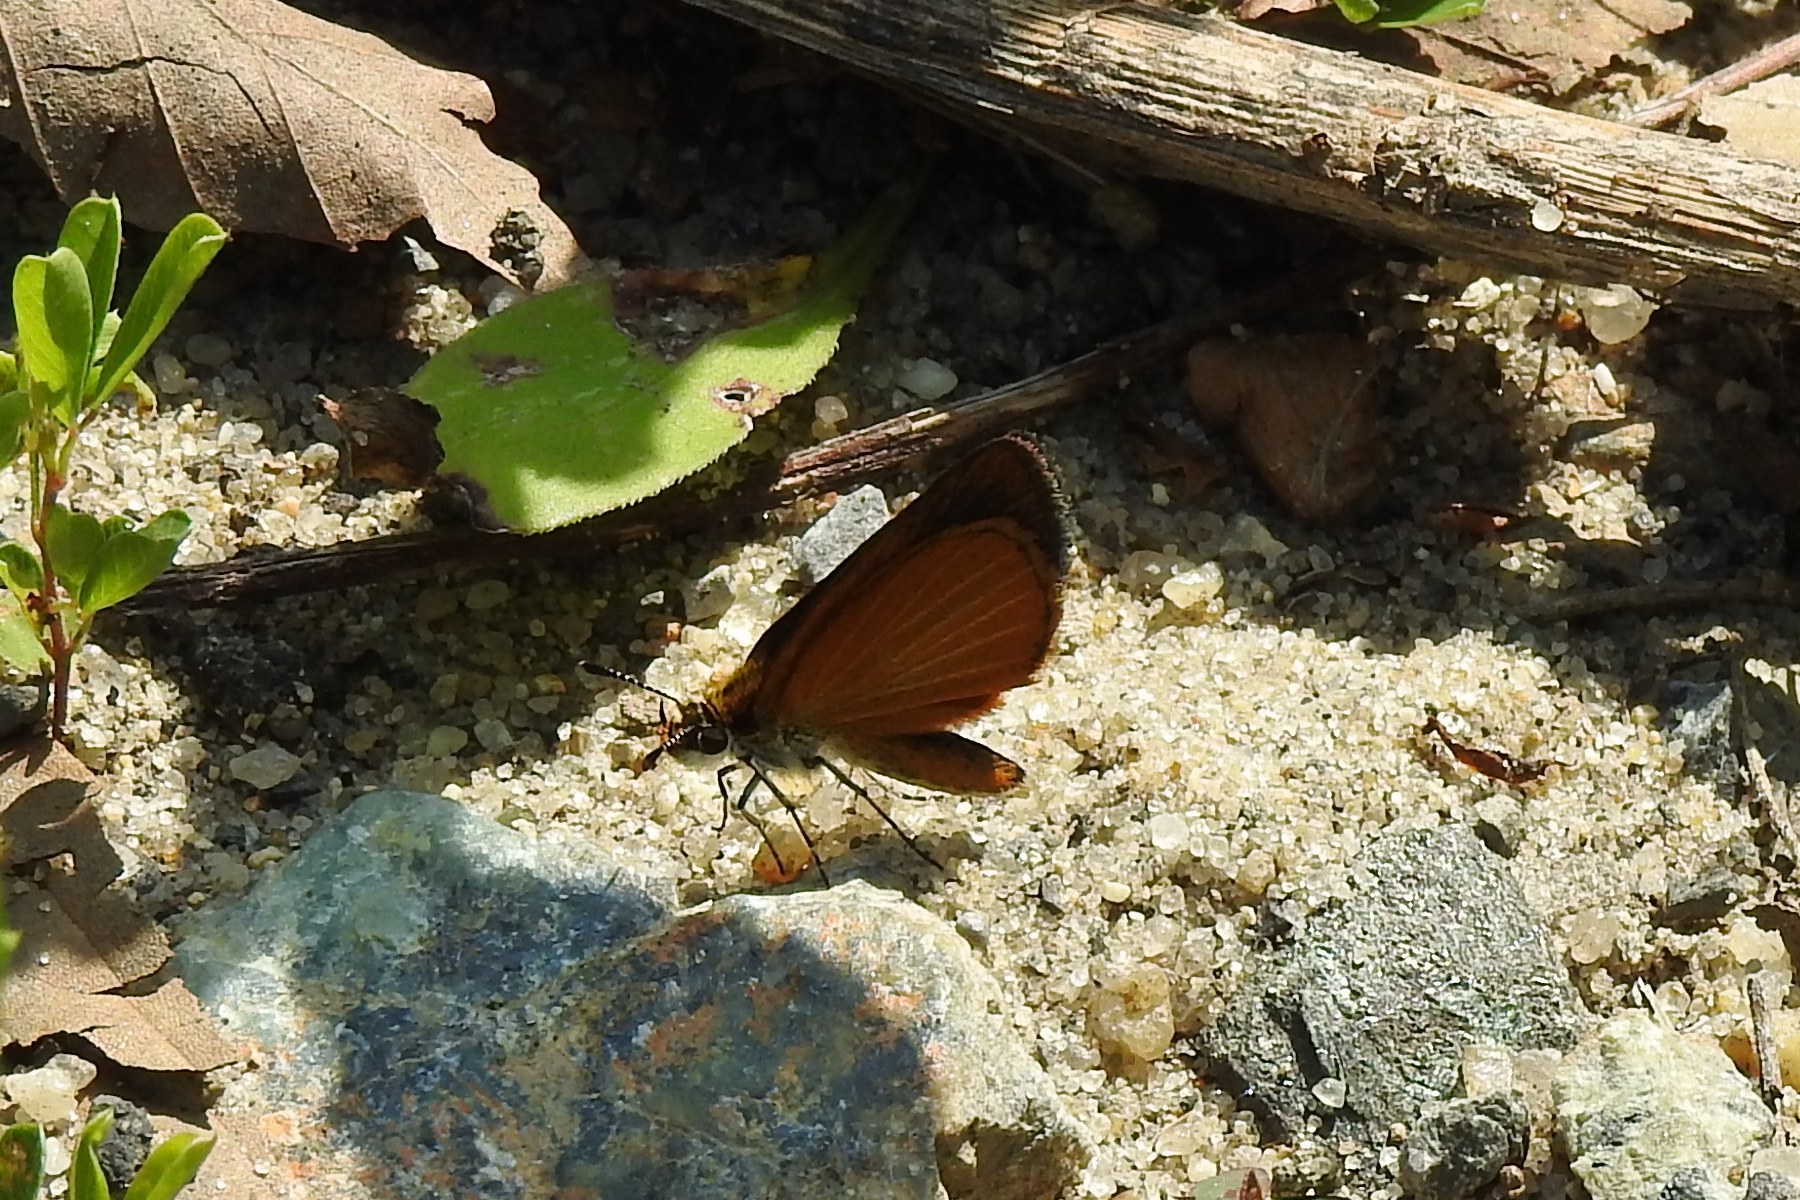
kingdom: Animalia
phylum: Arthropoda
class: Insecta
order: Lepidoptera
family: Hesperiidae
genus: Ancyloxypha
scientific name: Ancyloxypha numitor
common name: Least skipper
